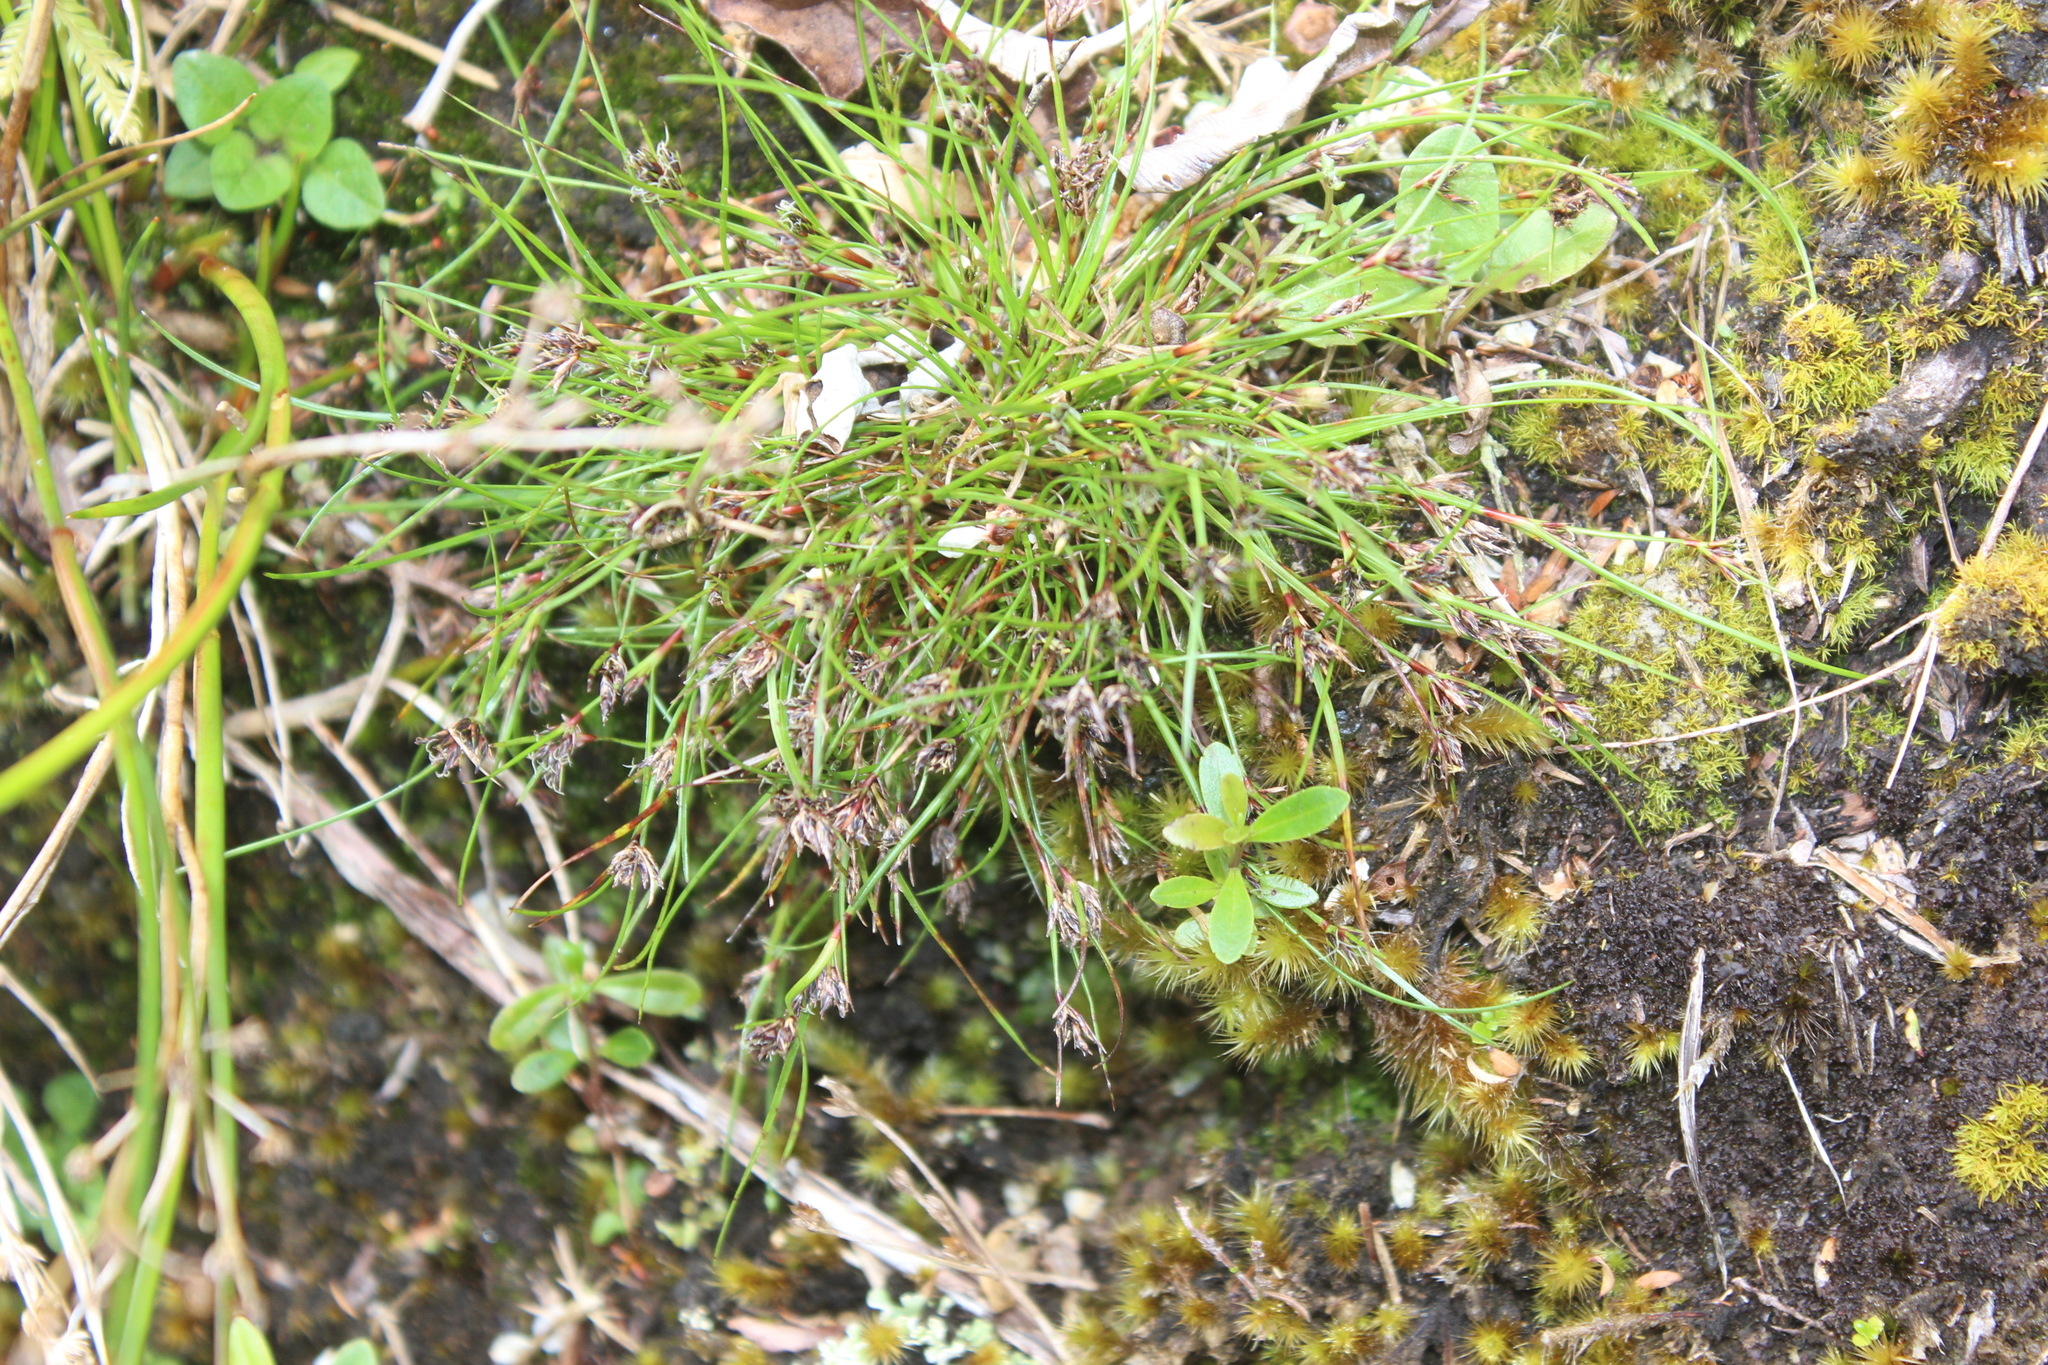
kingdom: Plantae
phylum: Tracheophyta
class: Liliopsida
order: Poales
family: Cyperaceae
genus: Schoenus
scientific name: Schoenus apogon
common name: Smooth bogrush
